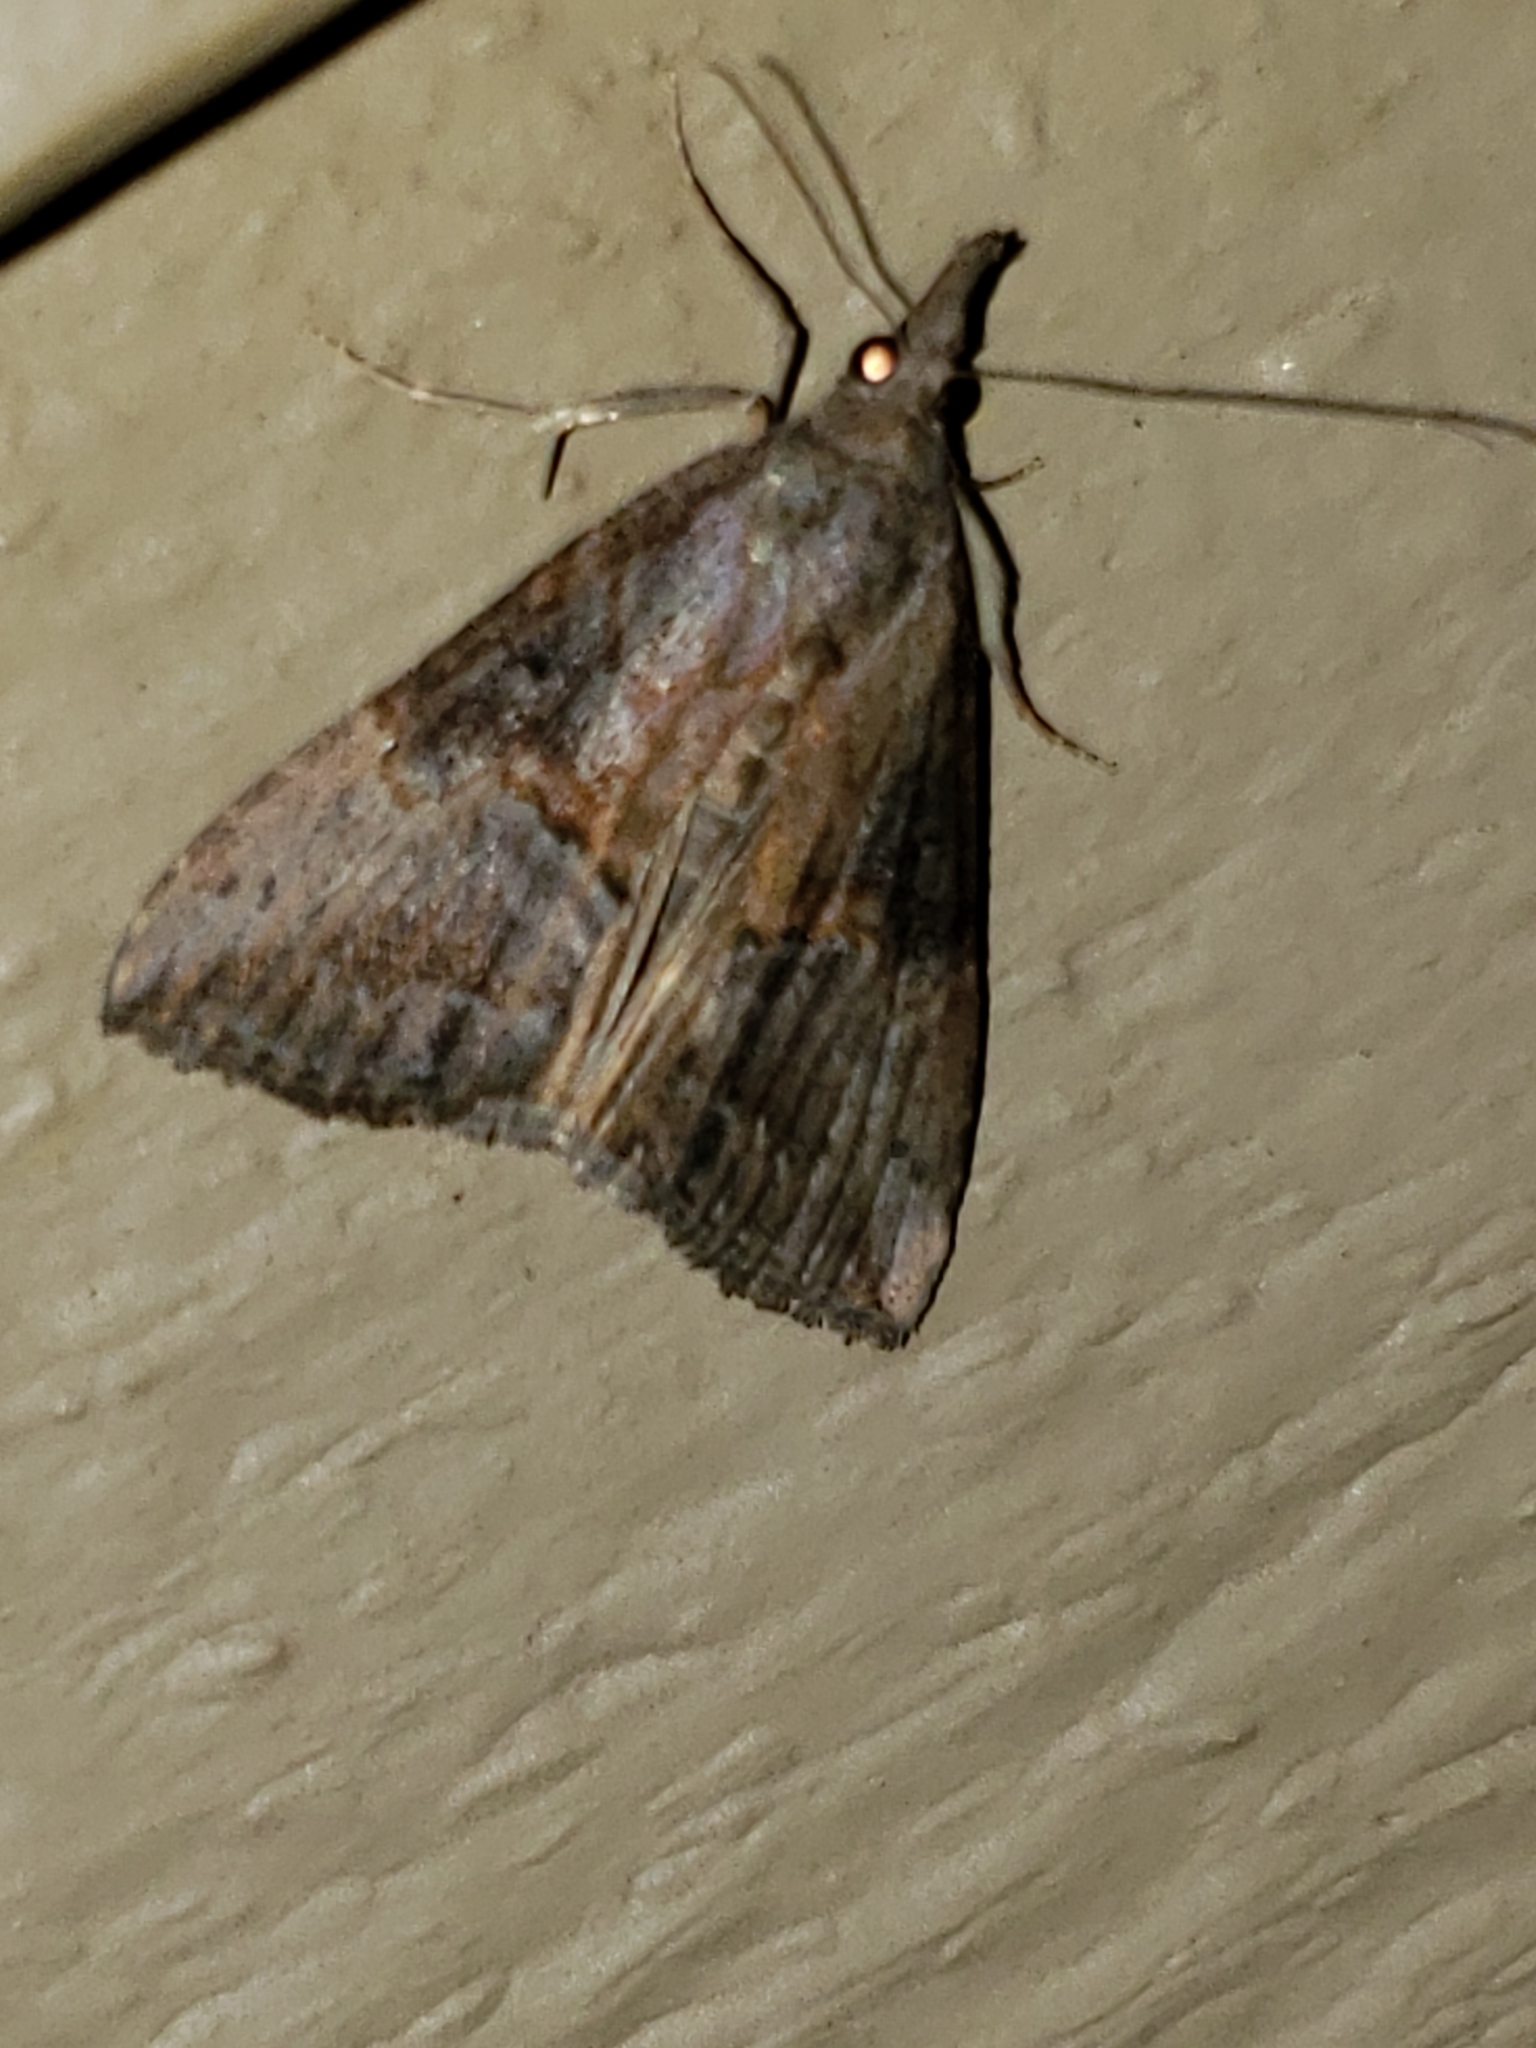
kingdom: Animalia
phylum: Arthropoda
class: Insecta
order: Lepidoptera
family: Erebidae
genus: Hypena
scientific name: Hypena scabra
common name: Green cloverworm
